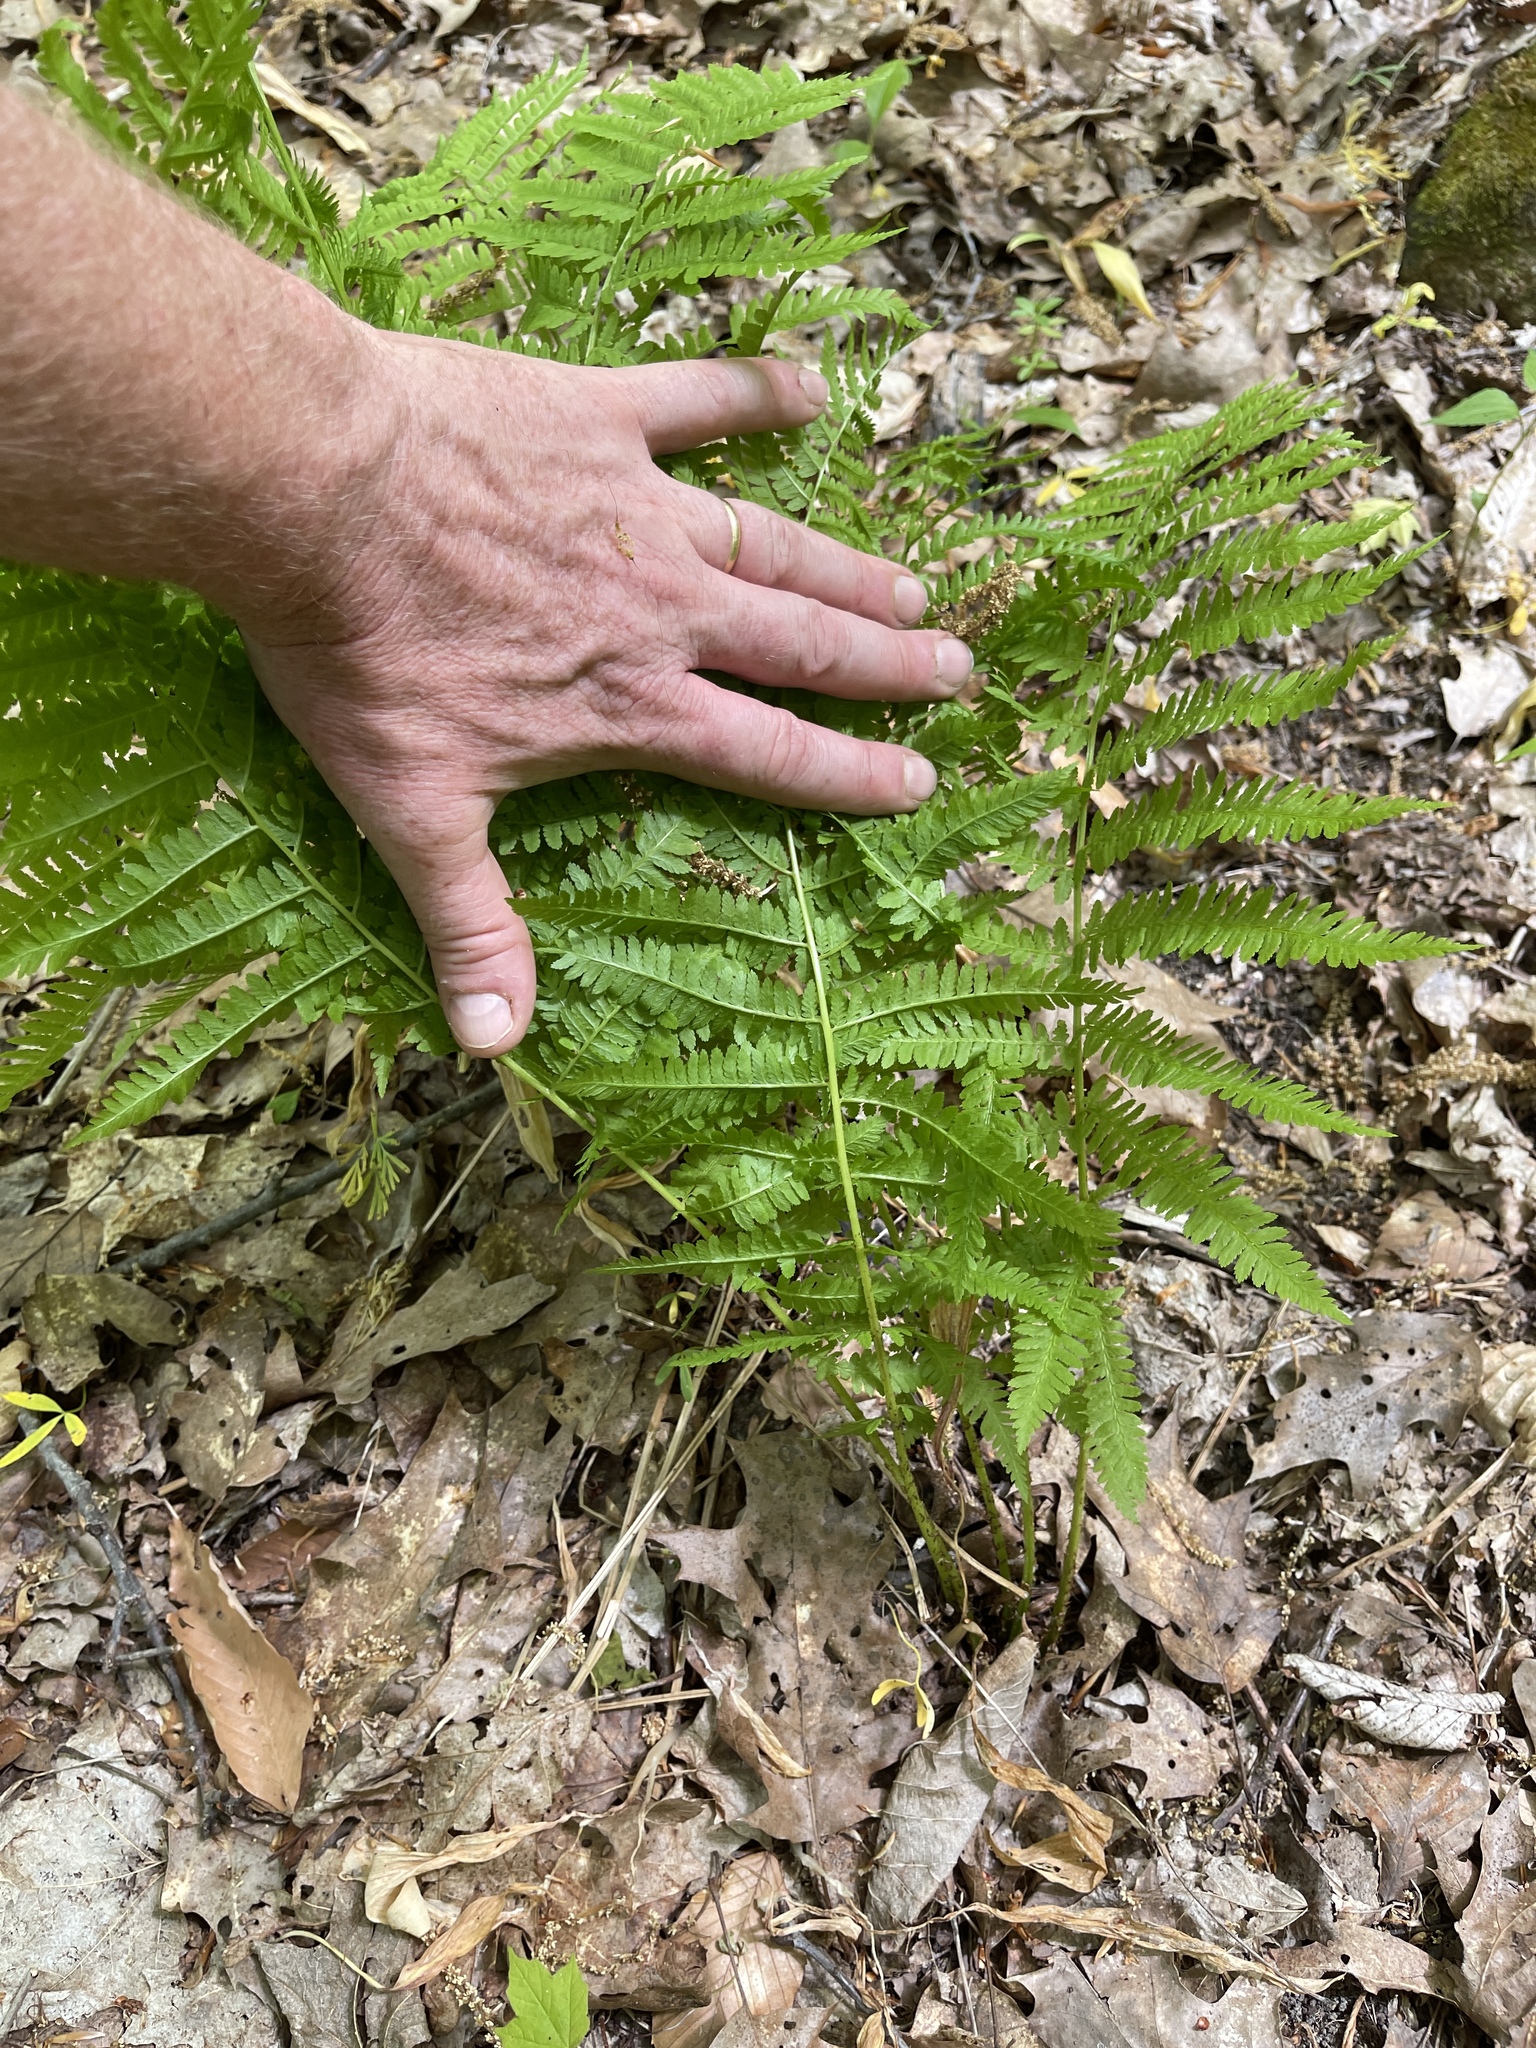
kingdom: Plantae
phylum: Tracheophyta
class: Polypodiopsida
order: Polypodiales
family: Athyriaceae
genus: Athyrium
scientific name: Athyrium angustum
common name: Northern lady fern
